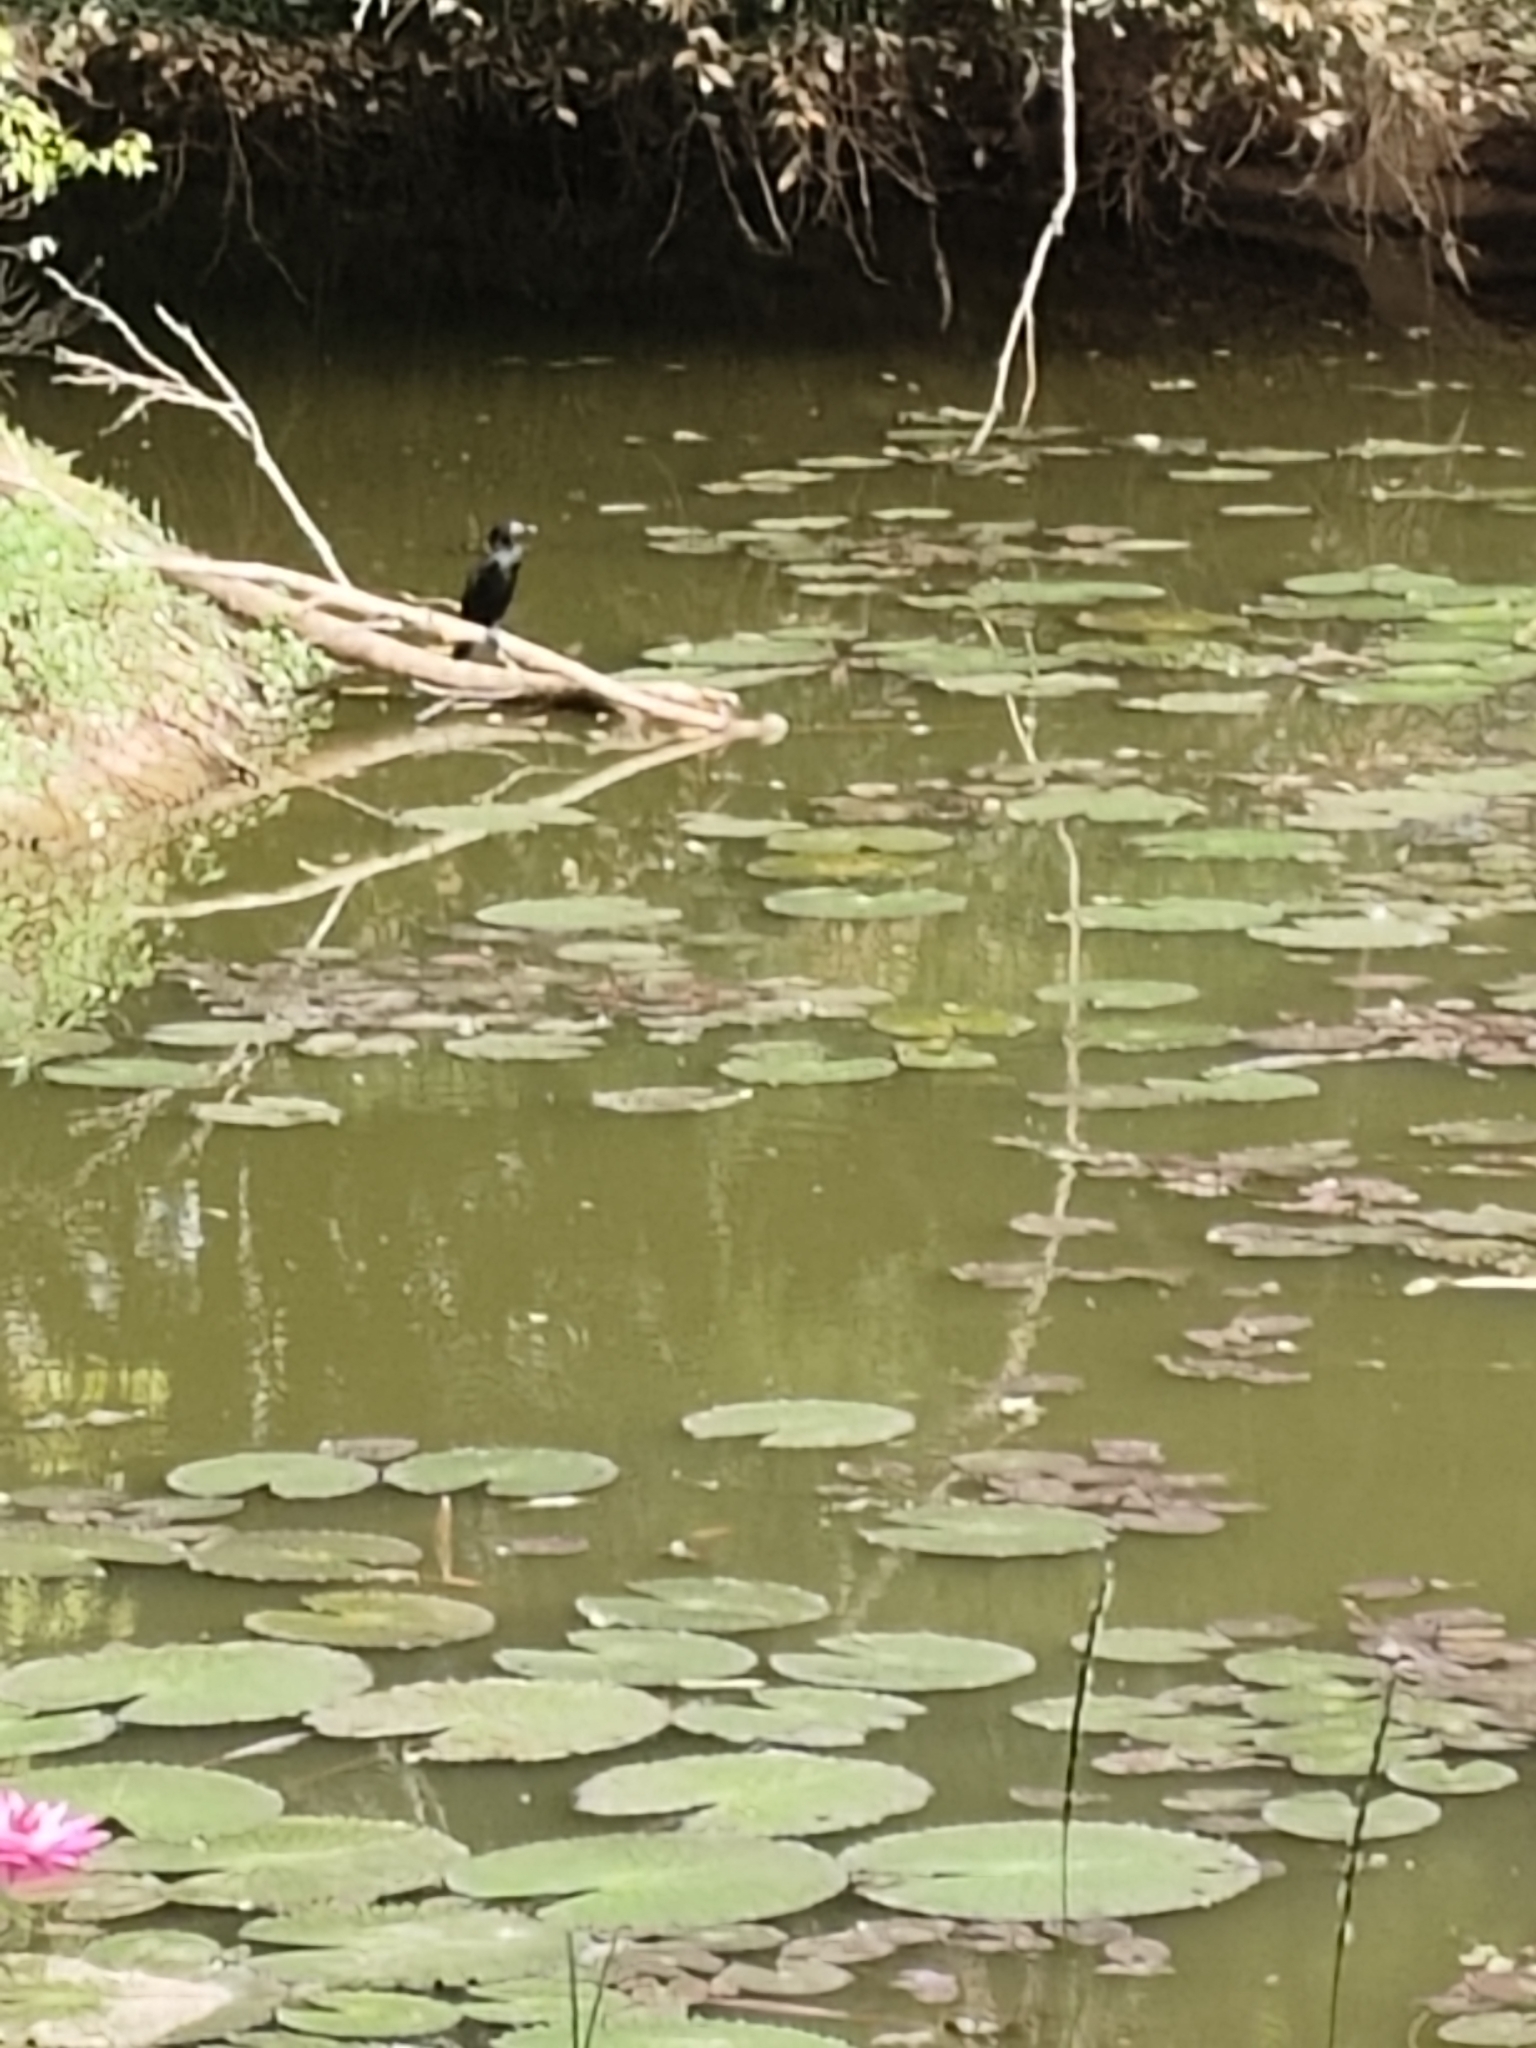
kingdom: Animalia
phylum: Chordata
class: Aves
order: Suliformes
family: Phalacrocoracidae
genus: Microcarbo
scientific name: Microcarbo niger
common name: Little cormorant
